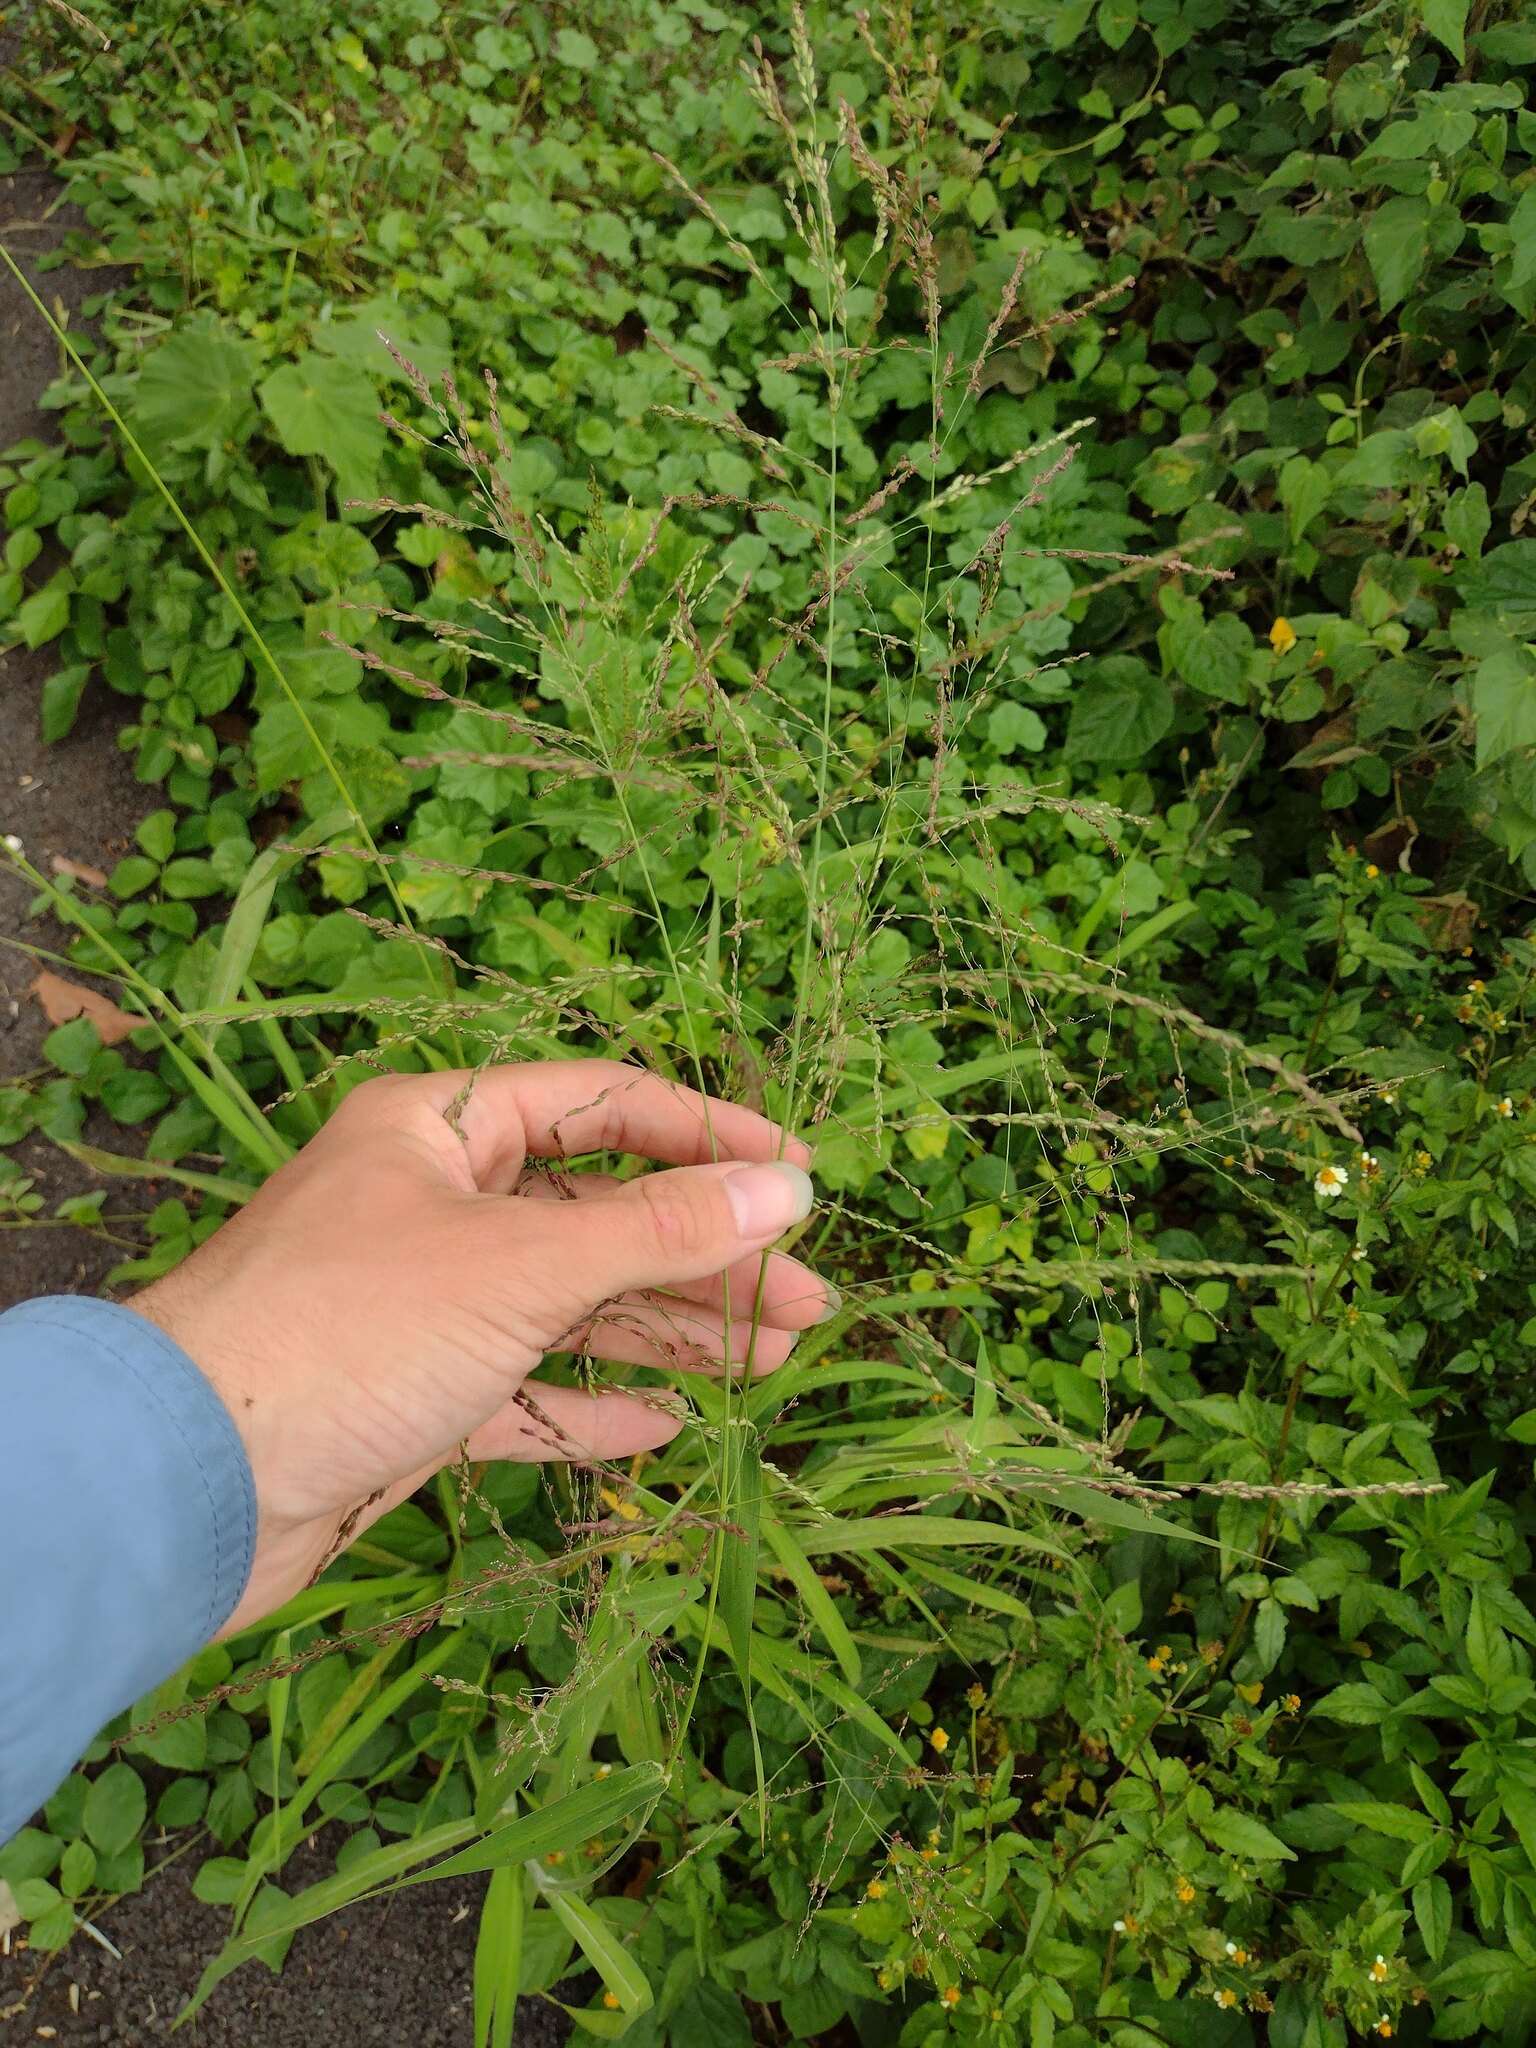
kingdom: Plantae
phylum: Tracheophyta
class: Liliopsida
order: Poales
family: Poaceae
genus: Megathyrsus
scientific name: Megathyrsus maximus
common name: Guineagrass
